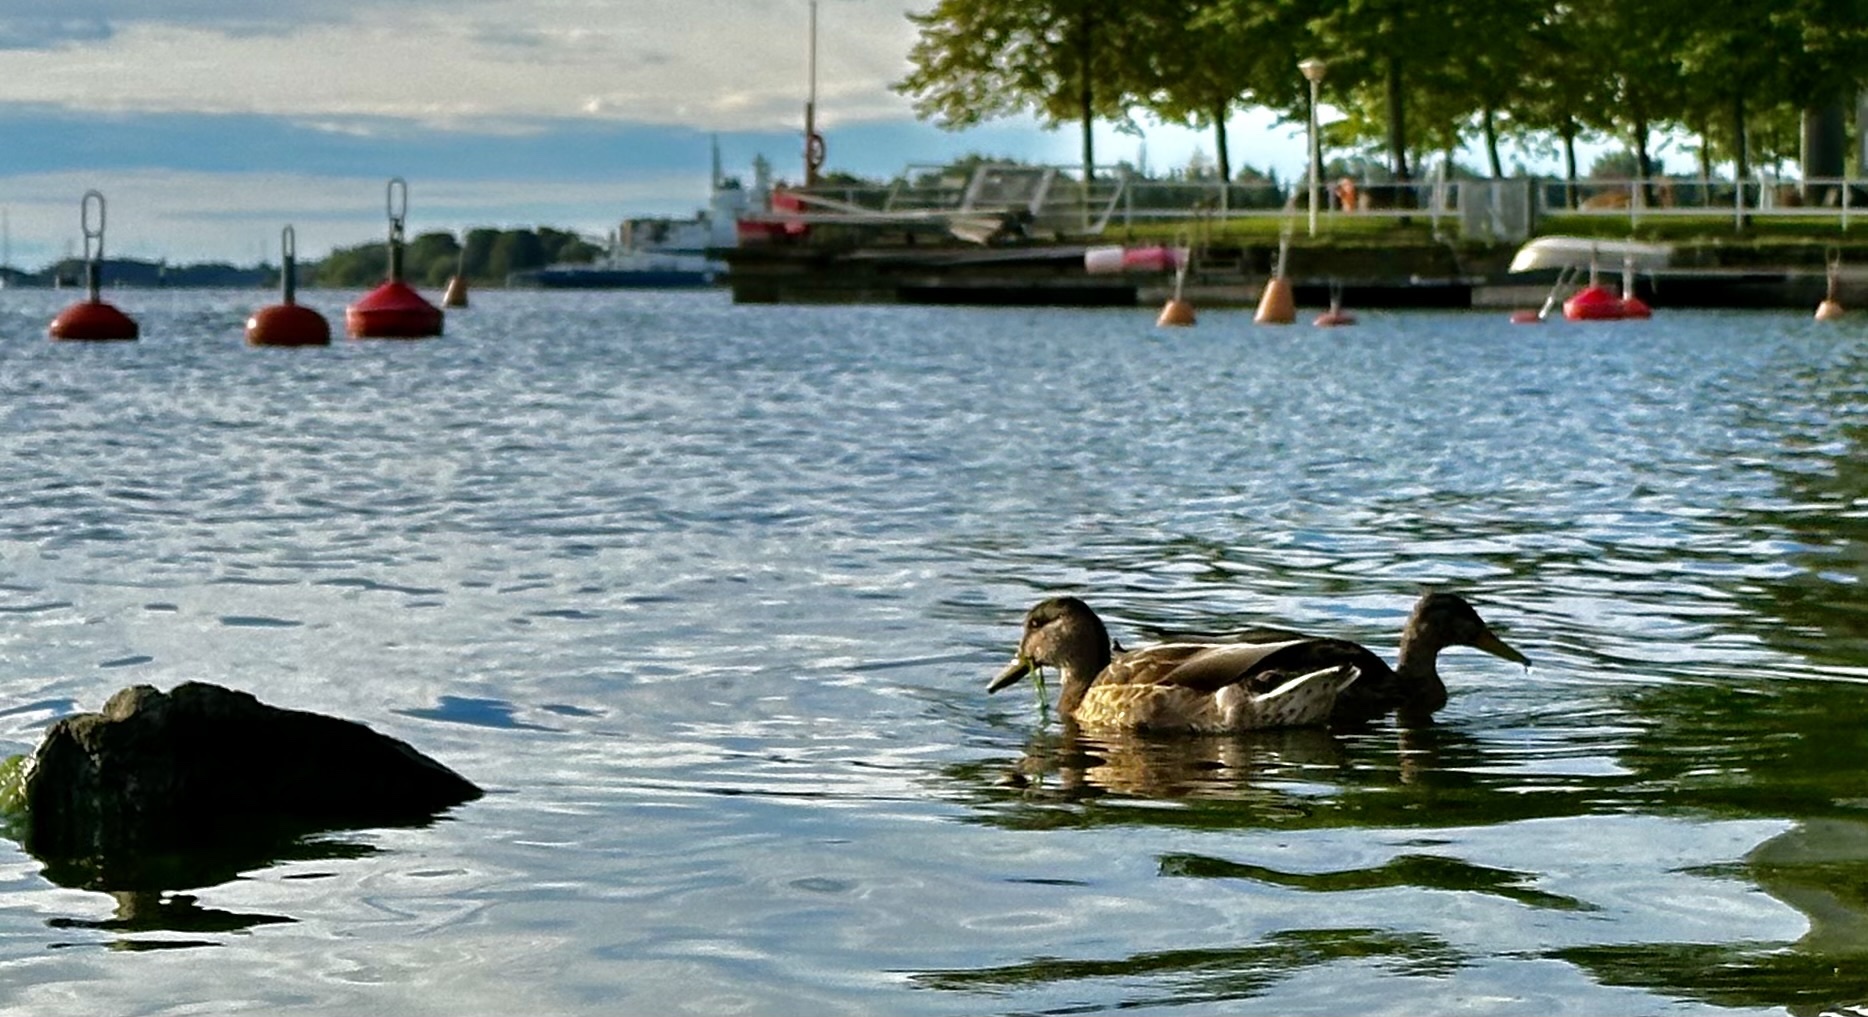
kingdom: Animalia
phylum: Chordata
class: Aves
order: Anseriformes
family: Anatidae
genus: Anas
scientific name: Anas platyrhynchos
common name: Mallard
